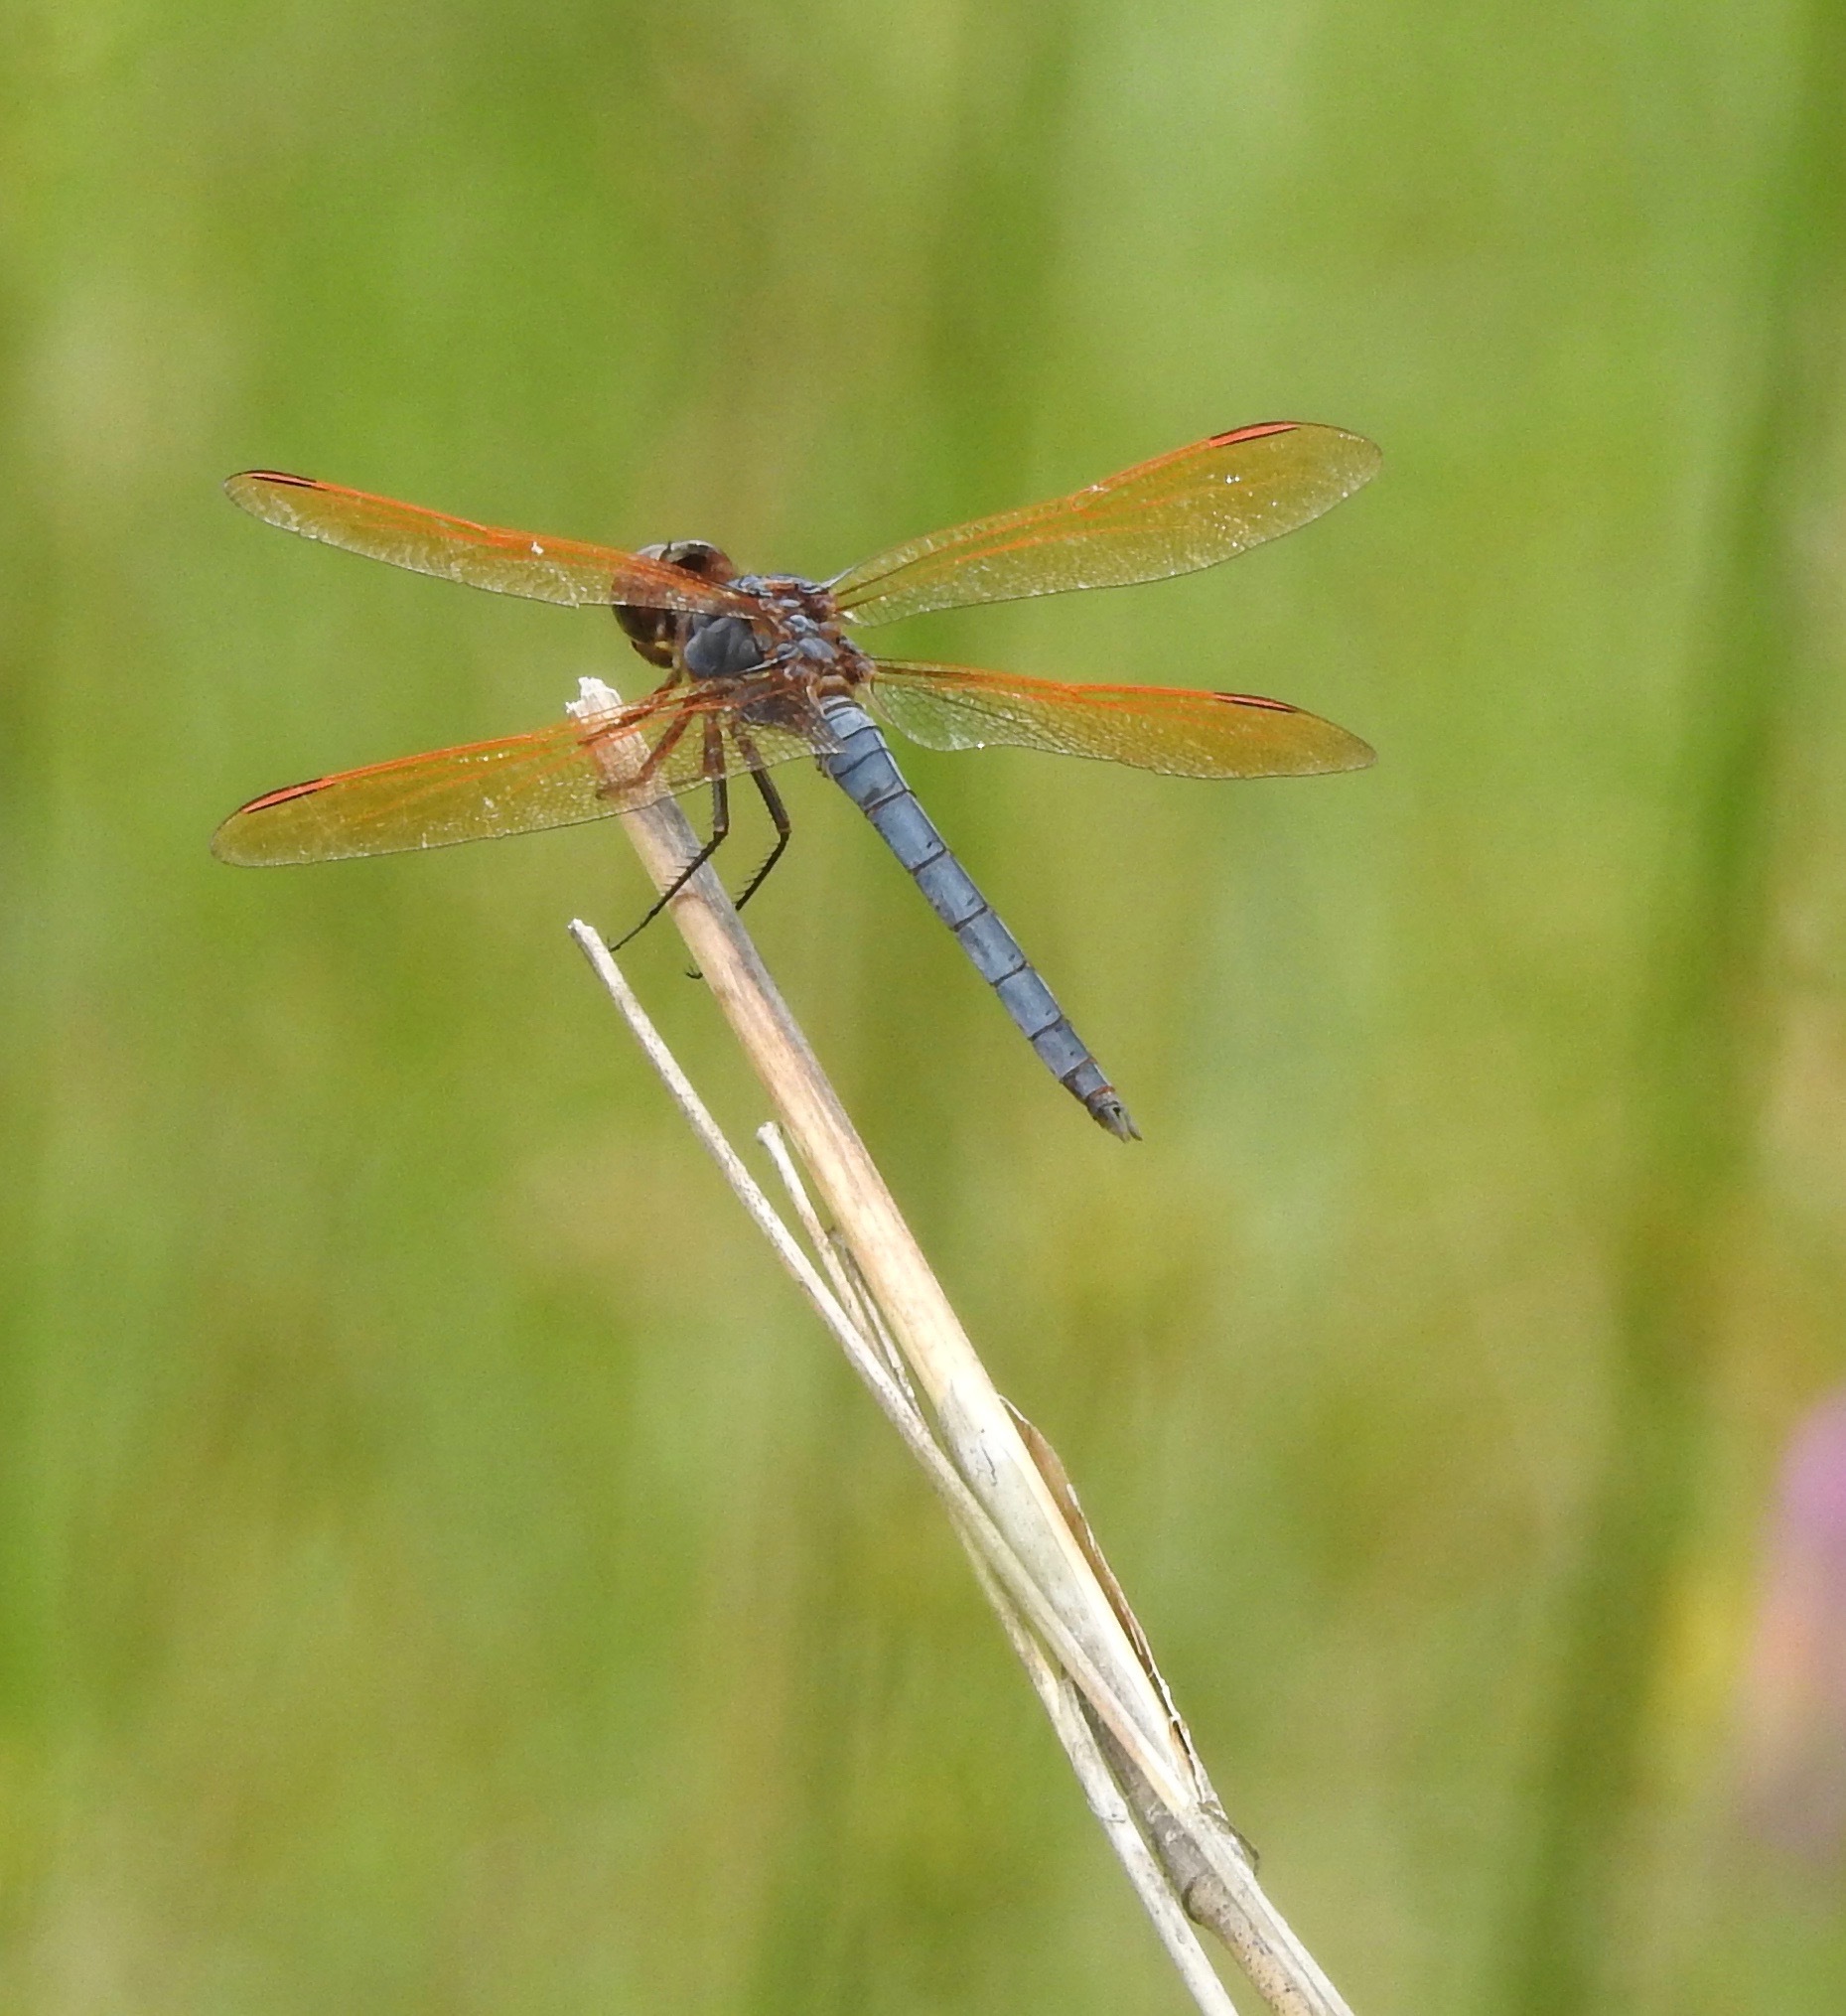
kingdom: Animalia
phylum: Arthropoda
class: Insecta
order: Odonata
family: Libellulidae
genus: Libellula
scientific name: Libellula jesseana
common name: Purple skimmer
